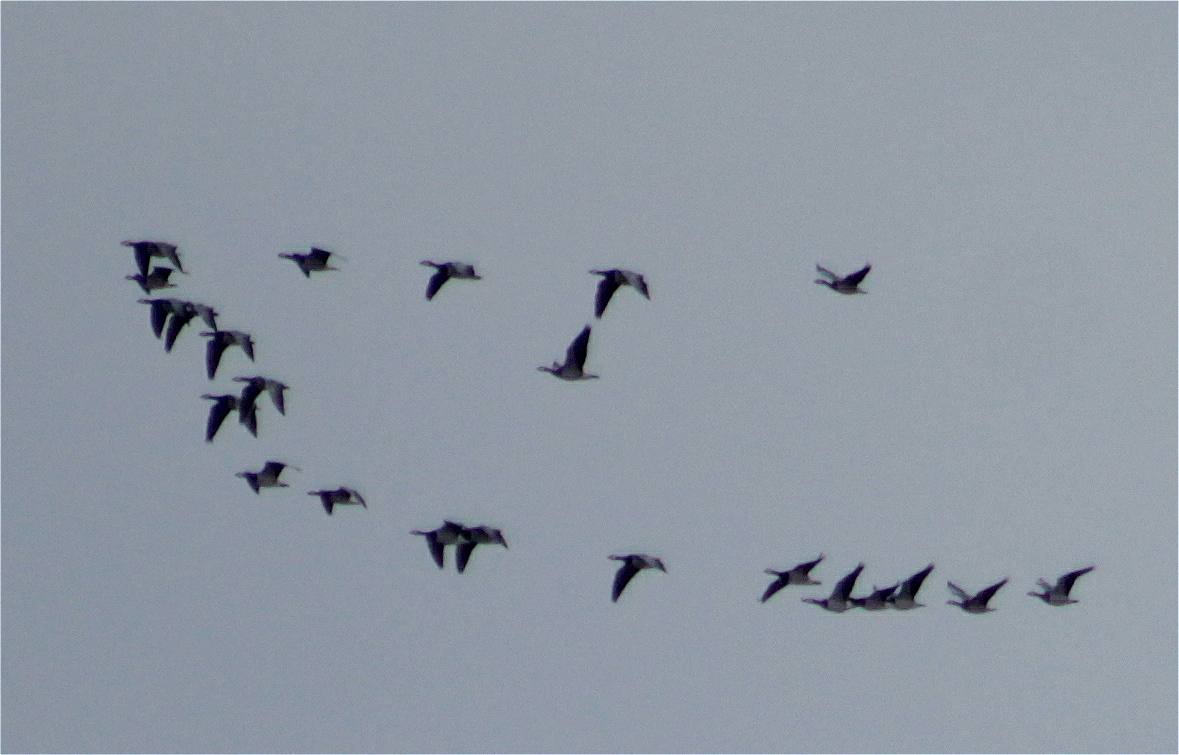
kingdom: Animalia
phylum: Chordata
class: Aves
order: Anseriformes
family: Anatidae
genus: Branta
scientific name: Branta leucopsis
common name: Barnacle goose
